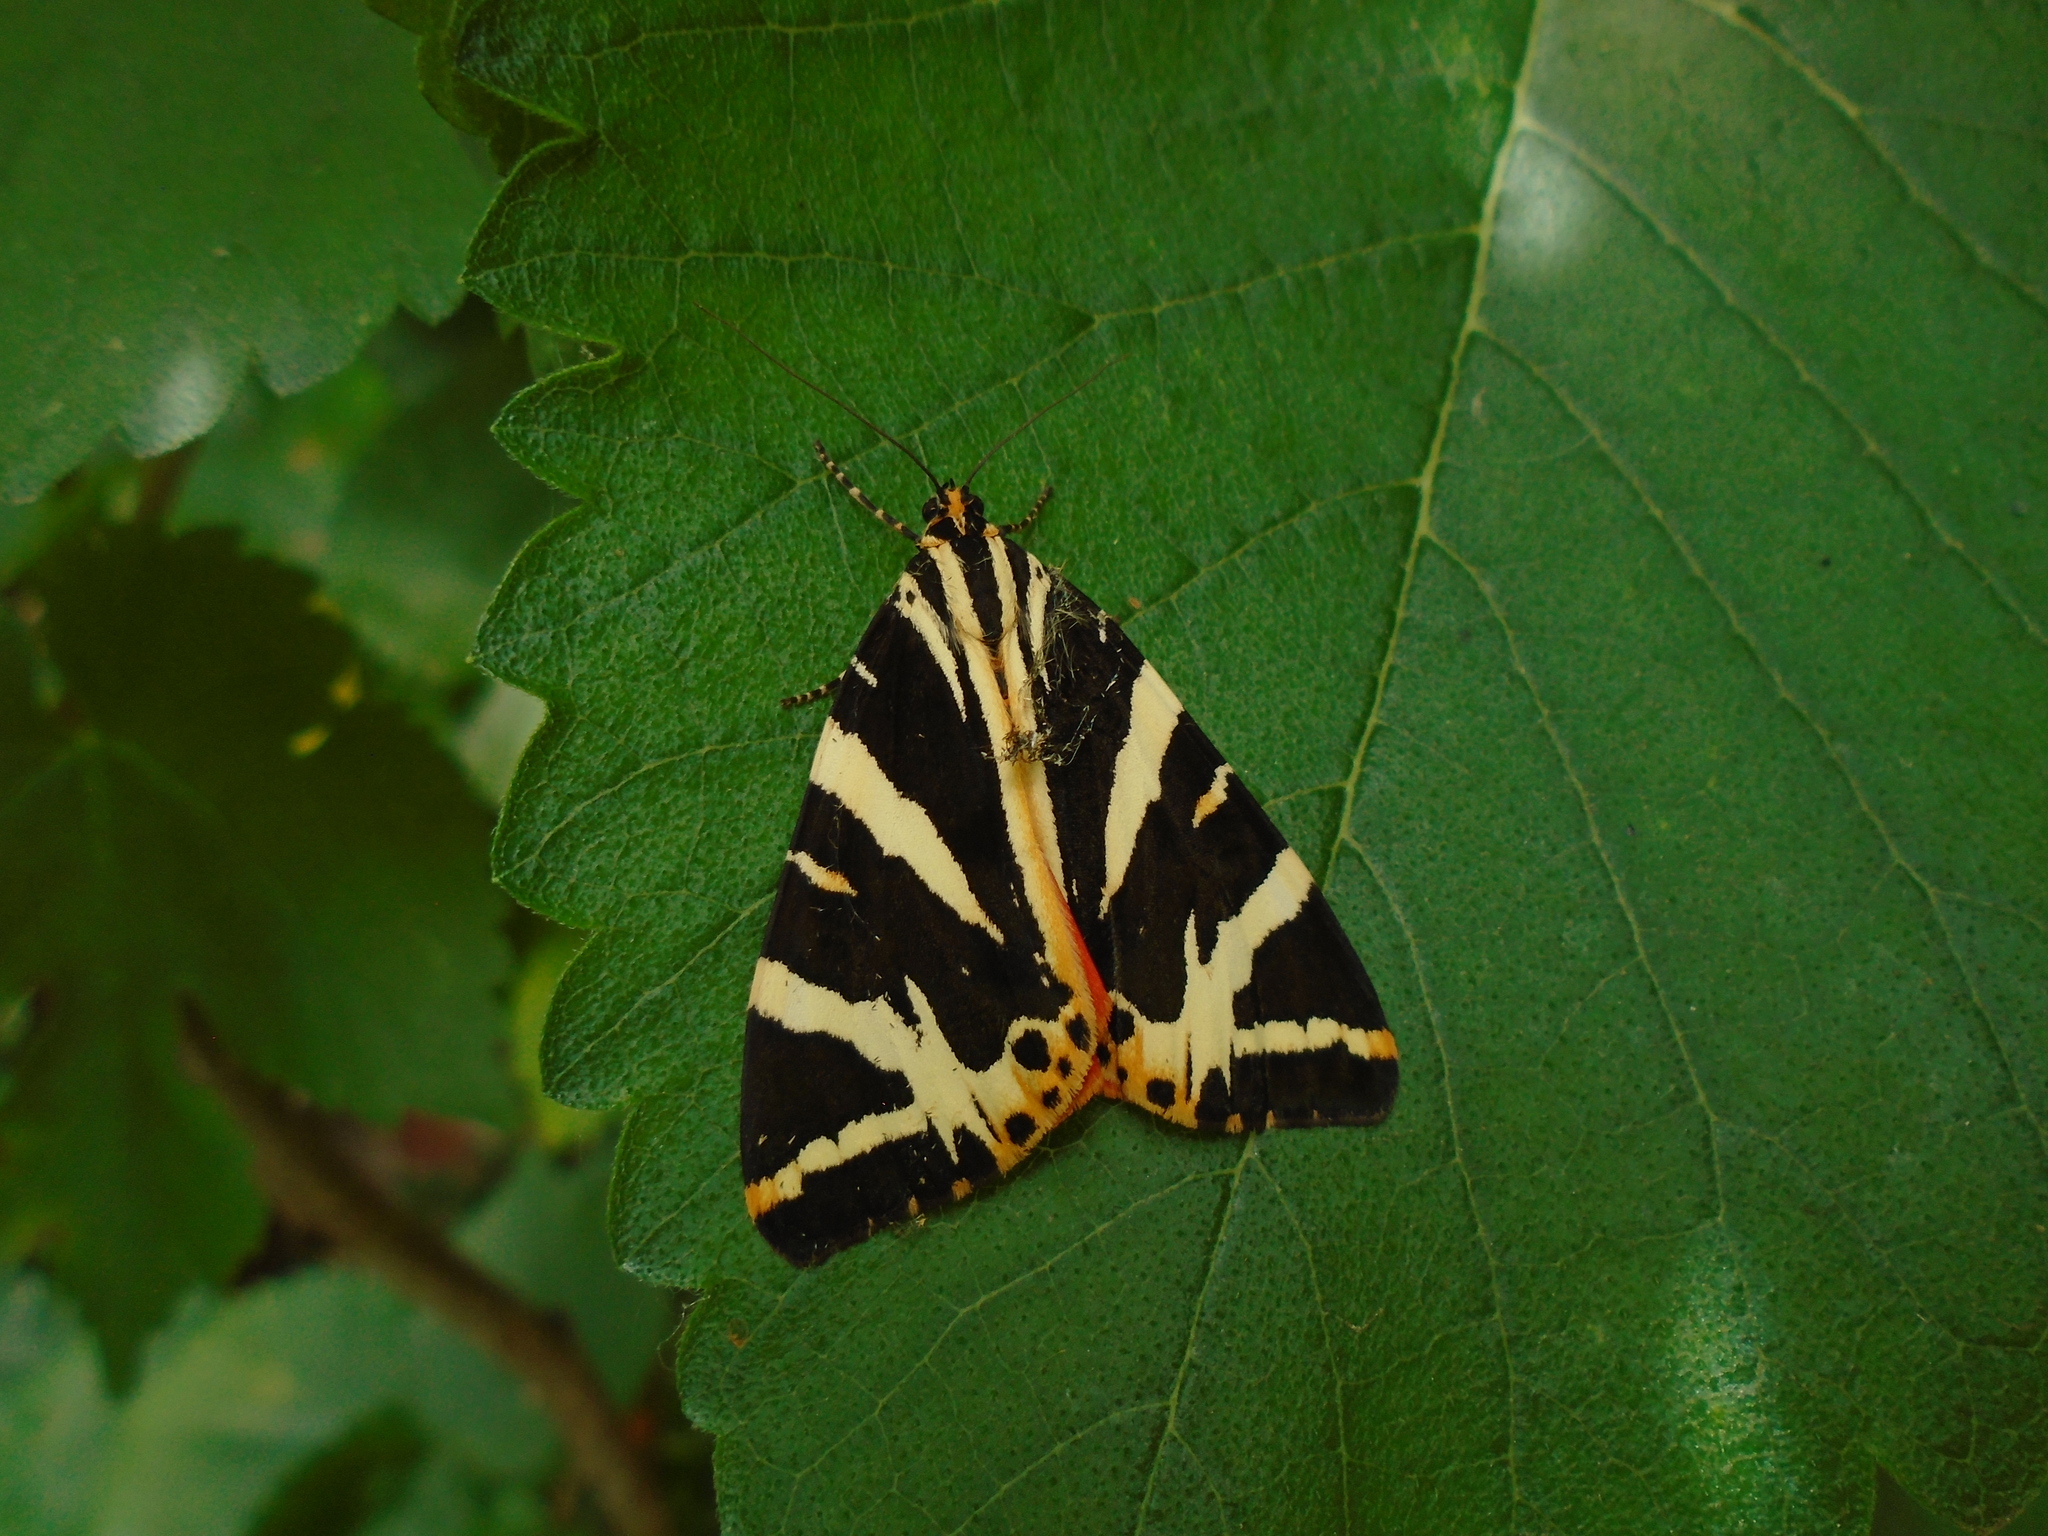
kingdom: Animalia
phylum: Arthropoda
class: Insecta
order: Lepidoptera
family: Erebidae
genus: Euplagia
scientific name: Euplagia quadripunctaria
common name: Jersey tiger
